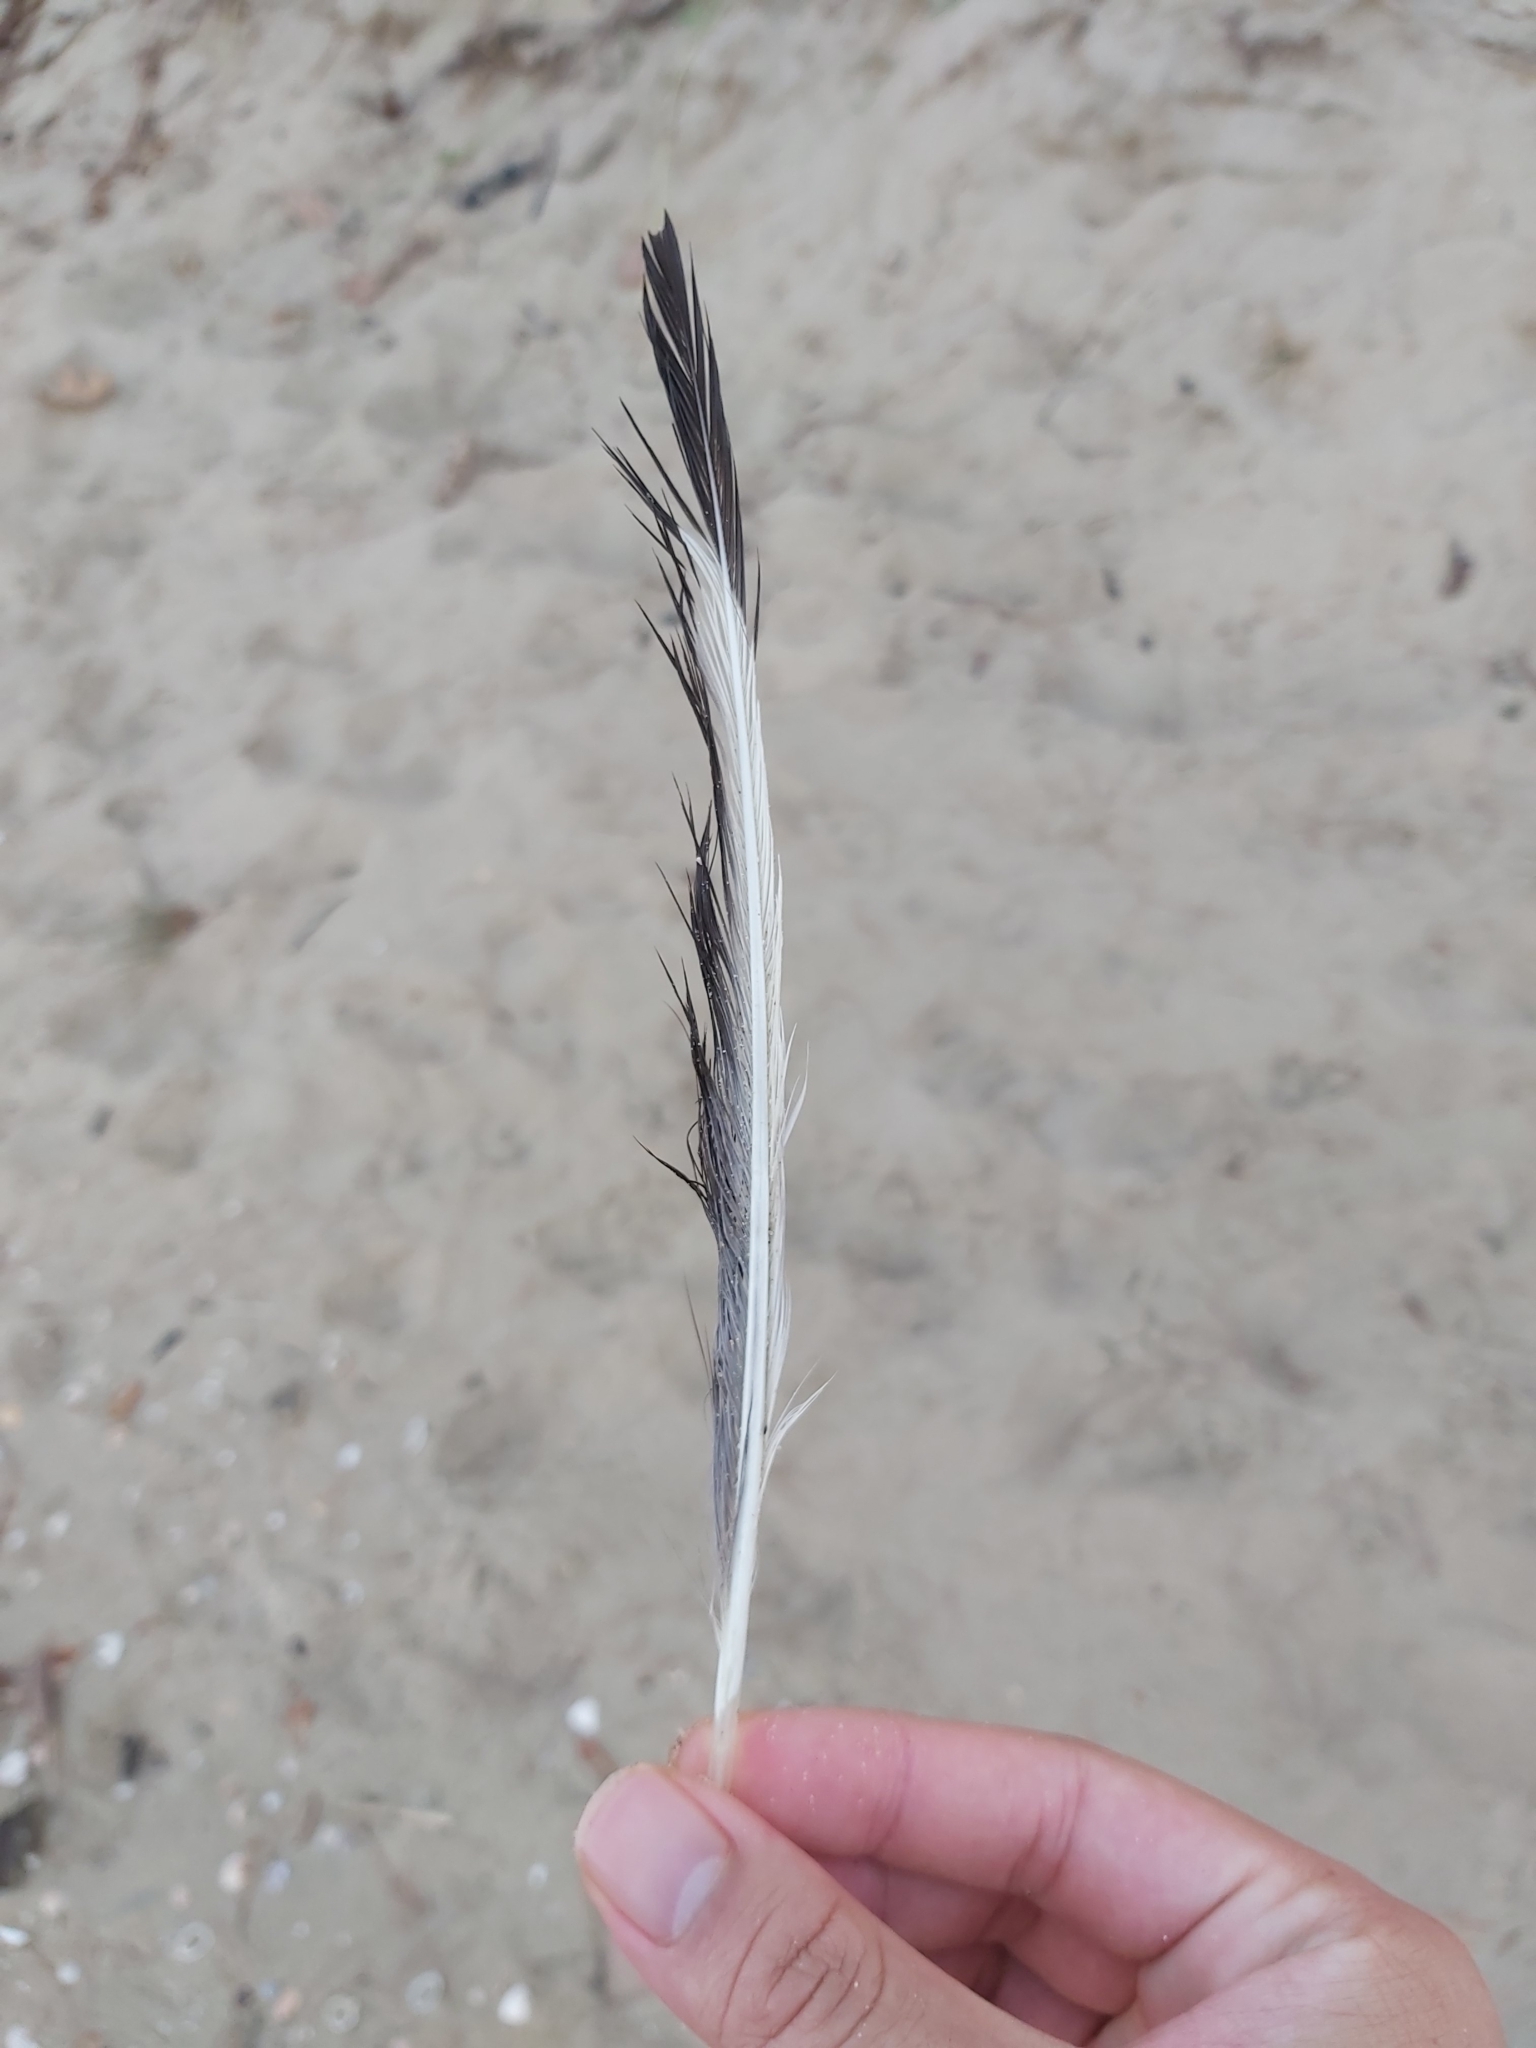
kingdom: Animalia
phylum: Chordata
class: Aves
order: Charadriiformes
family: Laridae
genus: Chroicocephalus
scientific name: Chroicocephalus novaehollandiae
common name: Silver gull
